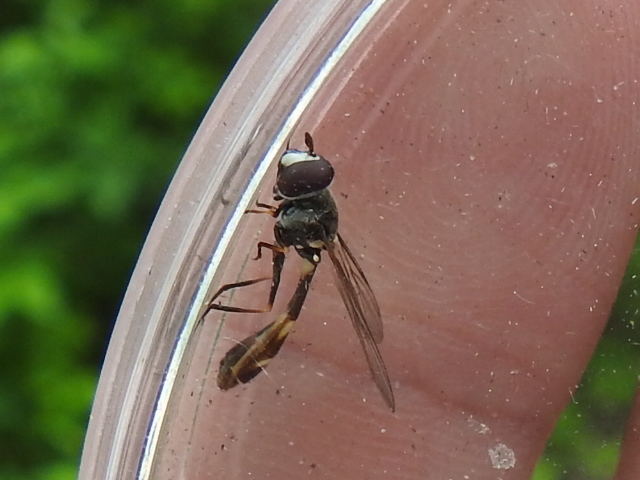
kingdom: Animalia
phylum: Arthropoda
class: Insecta
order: Diptera
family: Syrphidae
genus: Dioprosopa
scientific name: Dioprosopa clavatus
